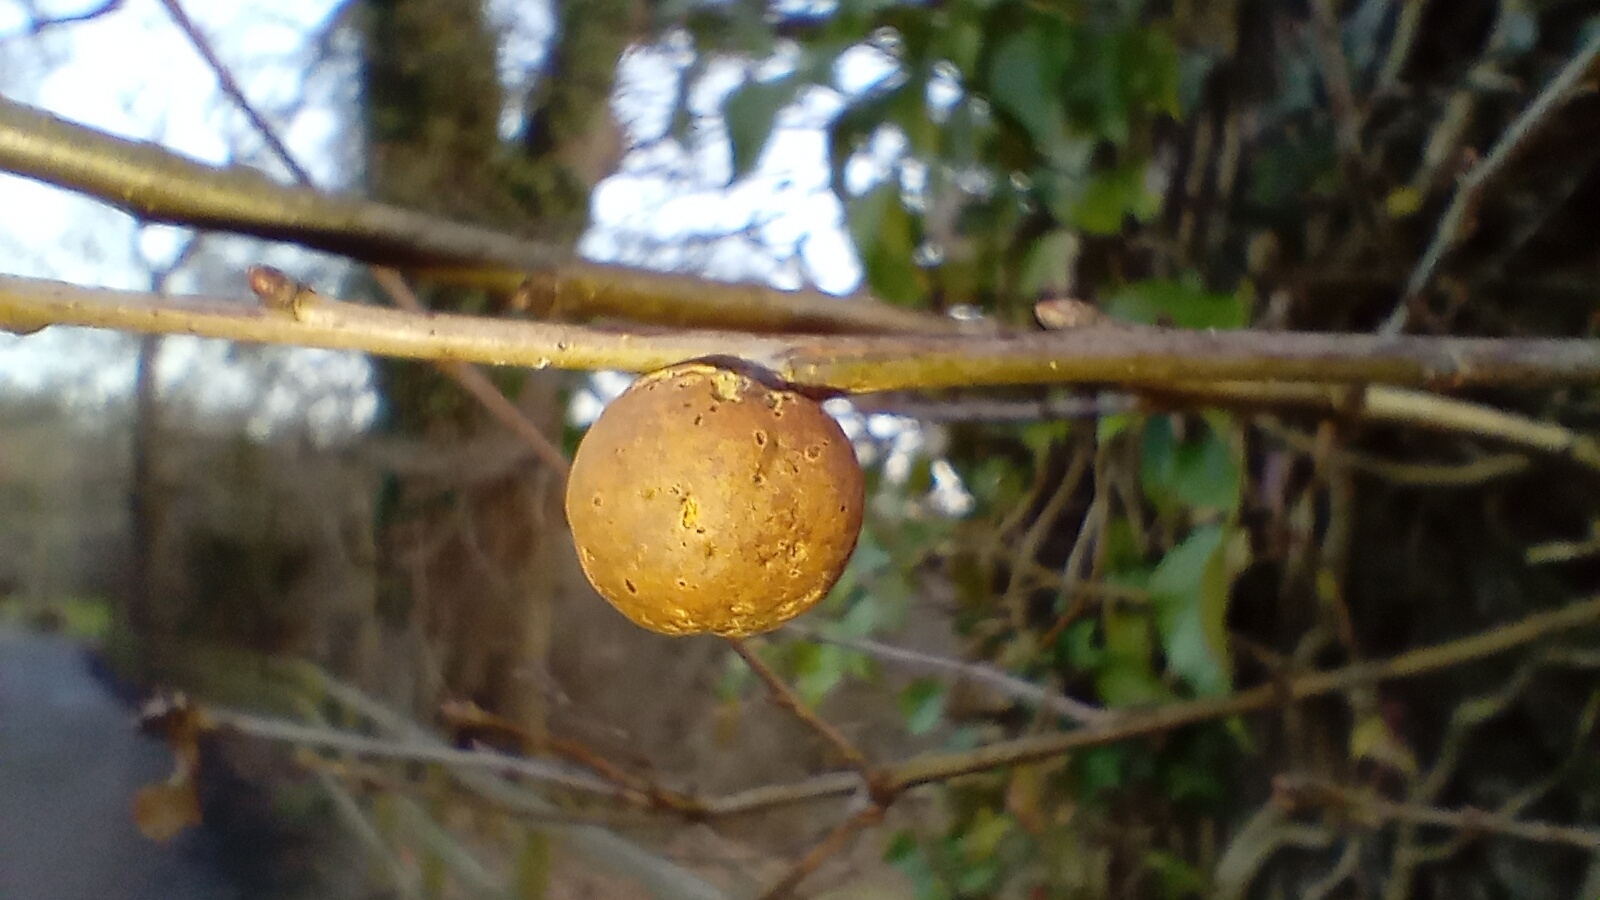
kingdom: Animalia
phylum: Arthropoda
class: Insecta
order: Hymenoptera
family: Cynipidae
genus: Andricus
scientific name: Andricus kollari
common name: Marble gall
